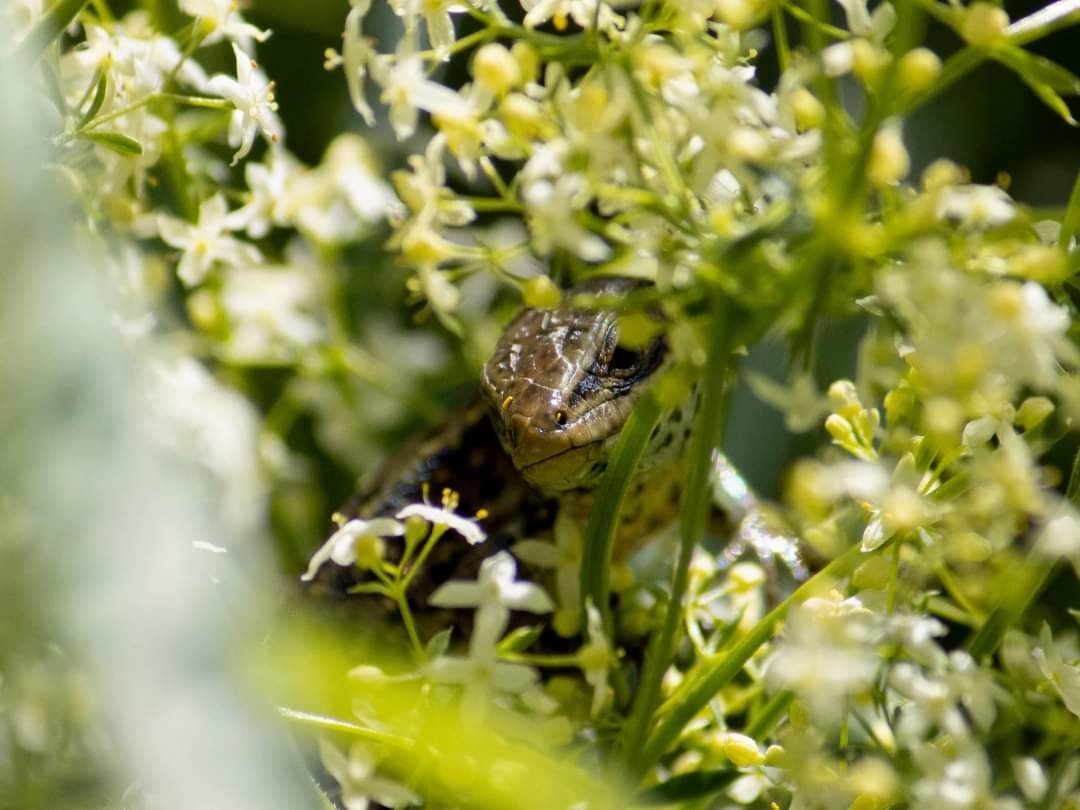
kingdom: Animalia
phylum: Chordata
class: Squamata
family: Lacertidae
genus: Zootoca
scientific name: Zootoca vivipara
